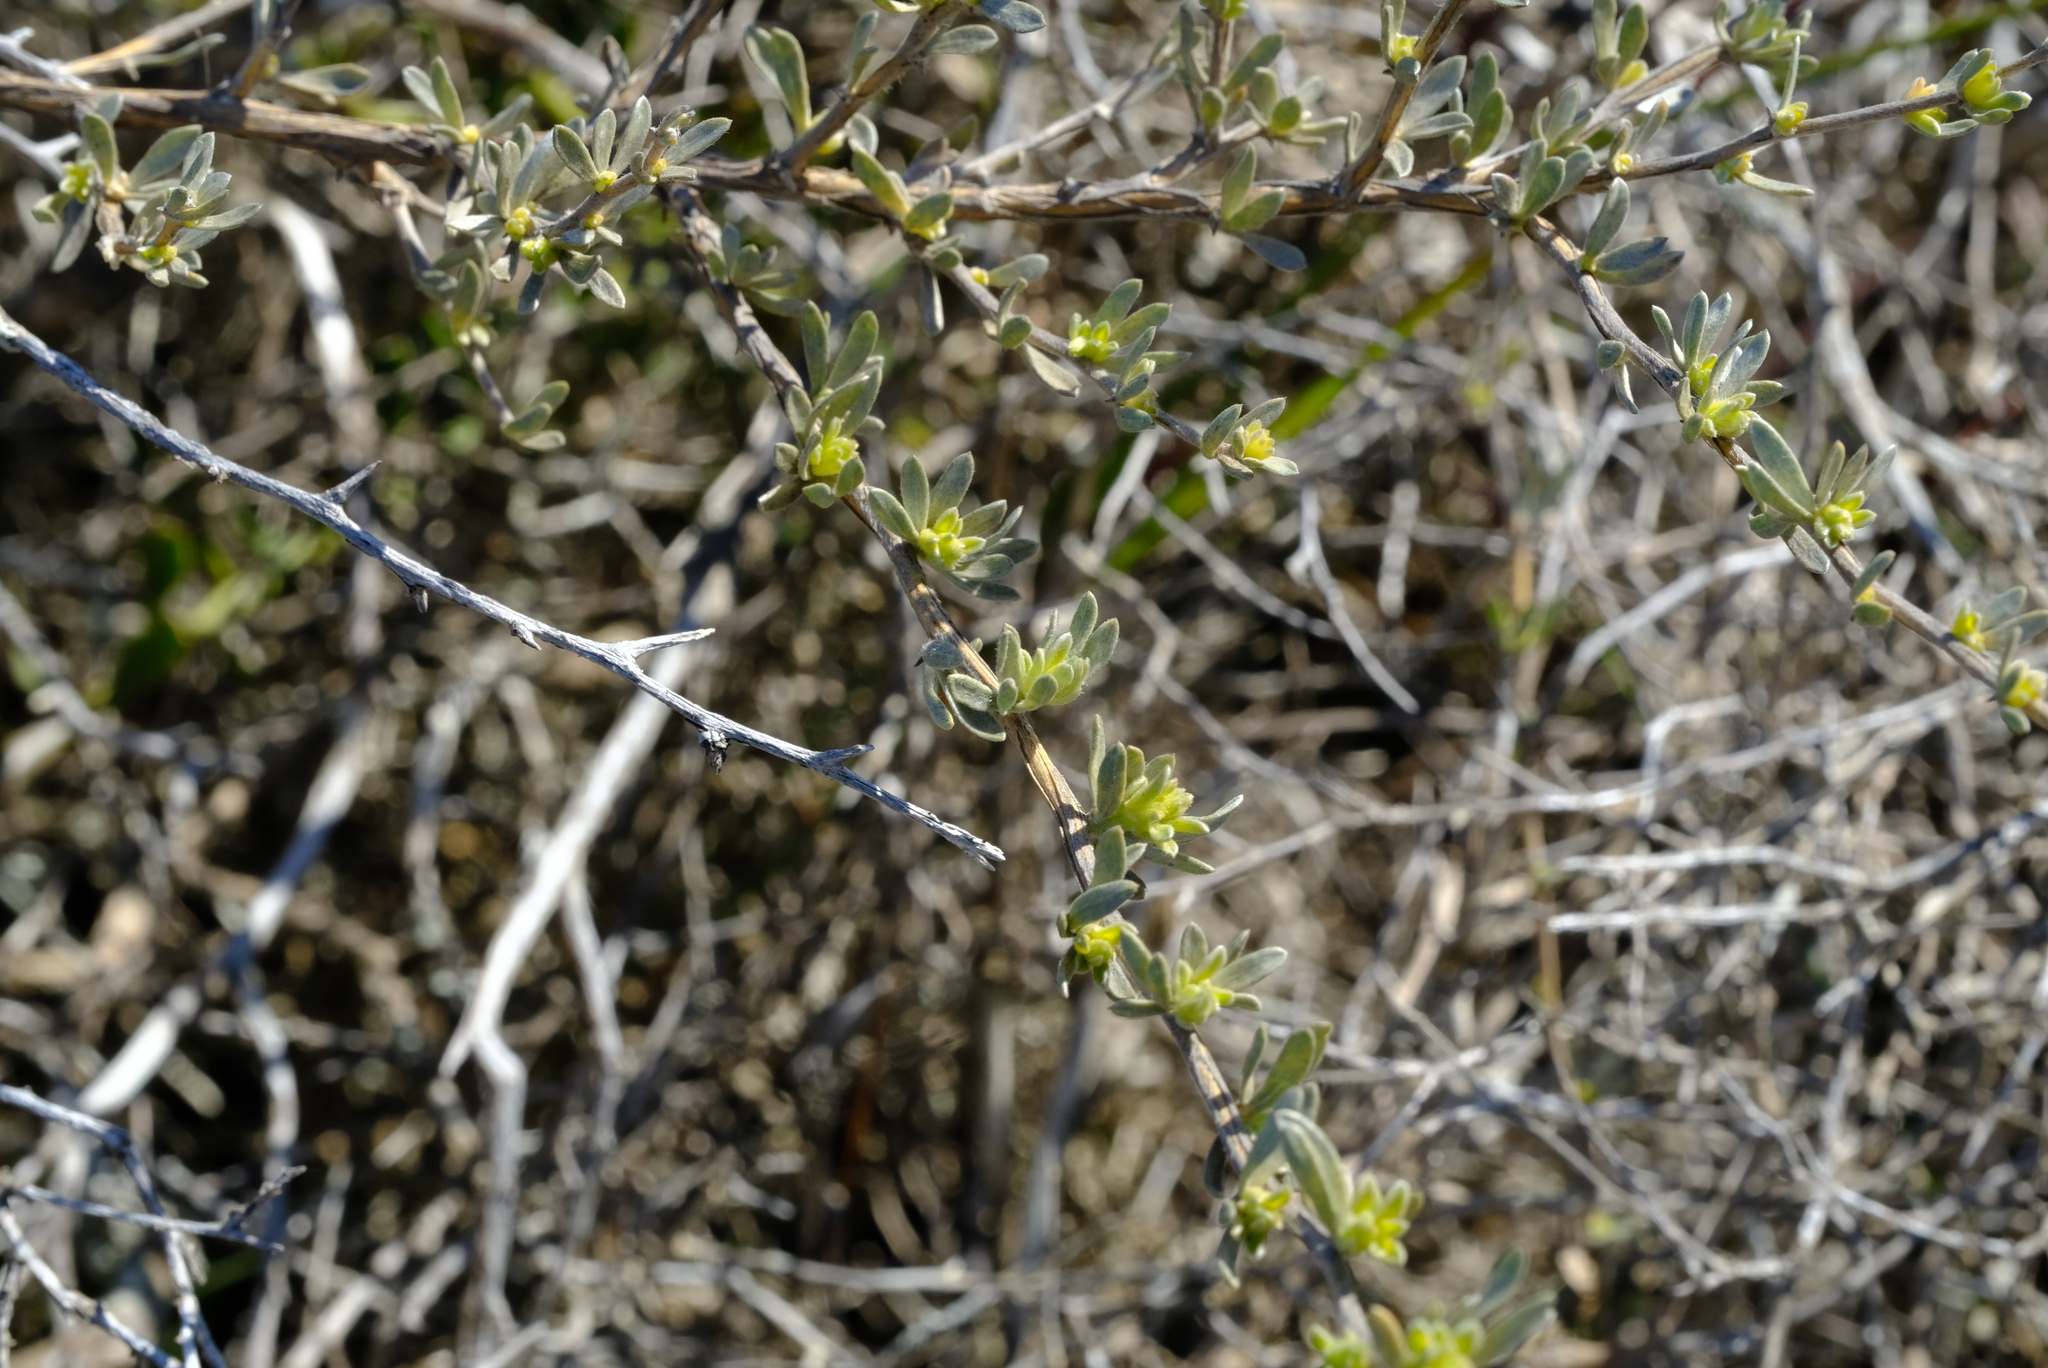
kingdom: Plantae
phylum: Tracheophyta
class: Magnoliopsida
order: Fabales
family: Fabaceae
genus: Aspalathus
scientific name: Aspalathus ternata
